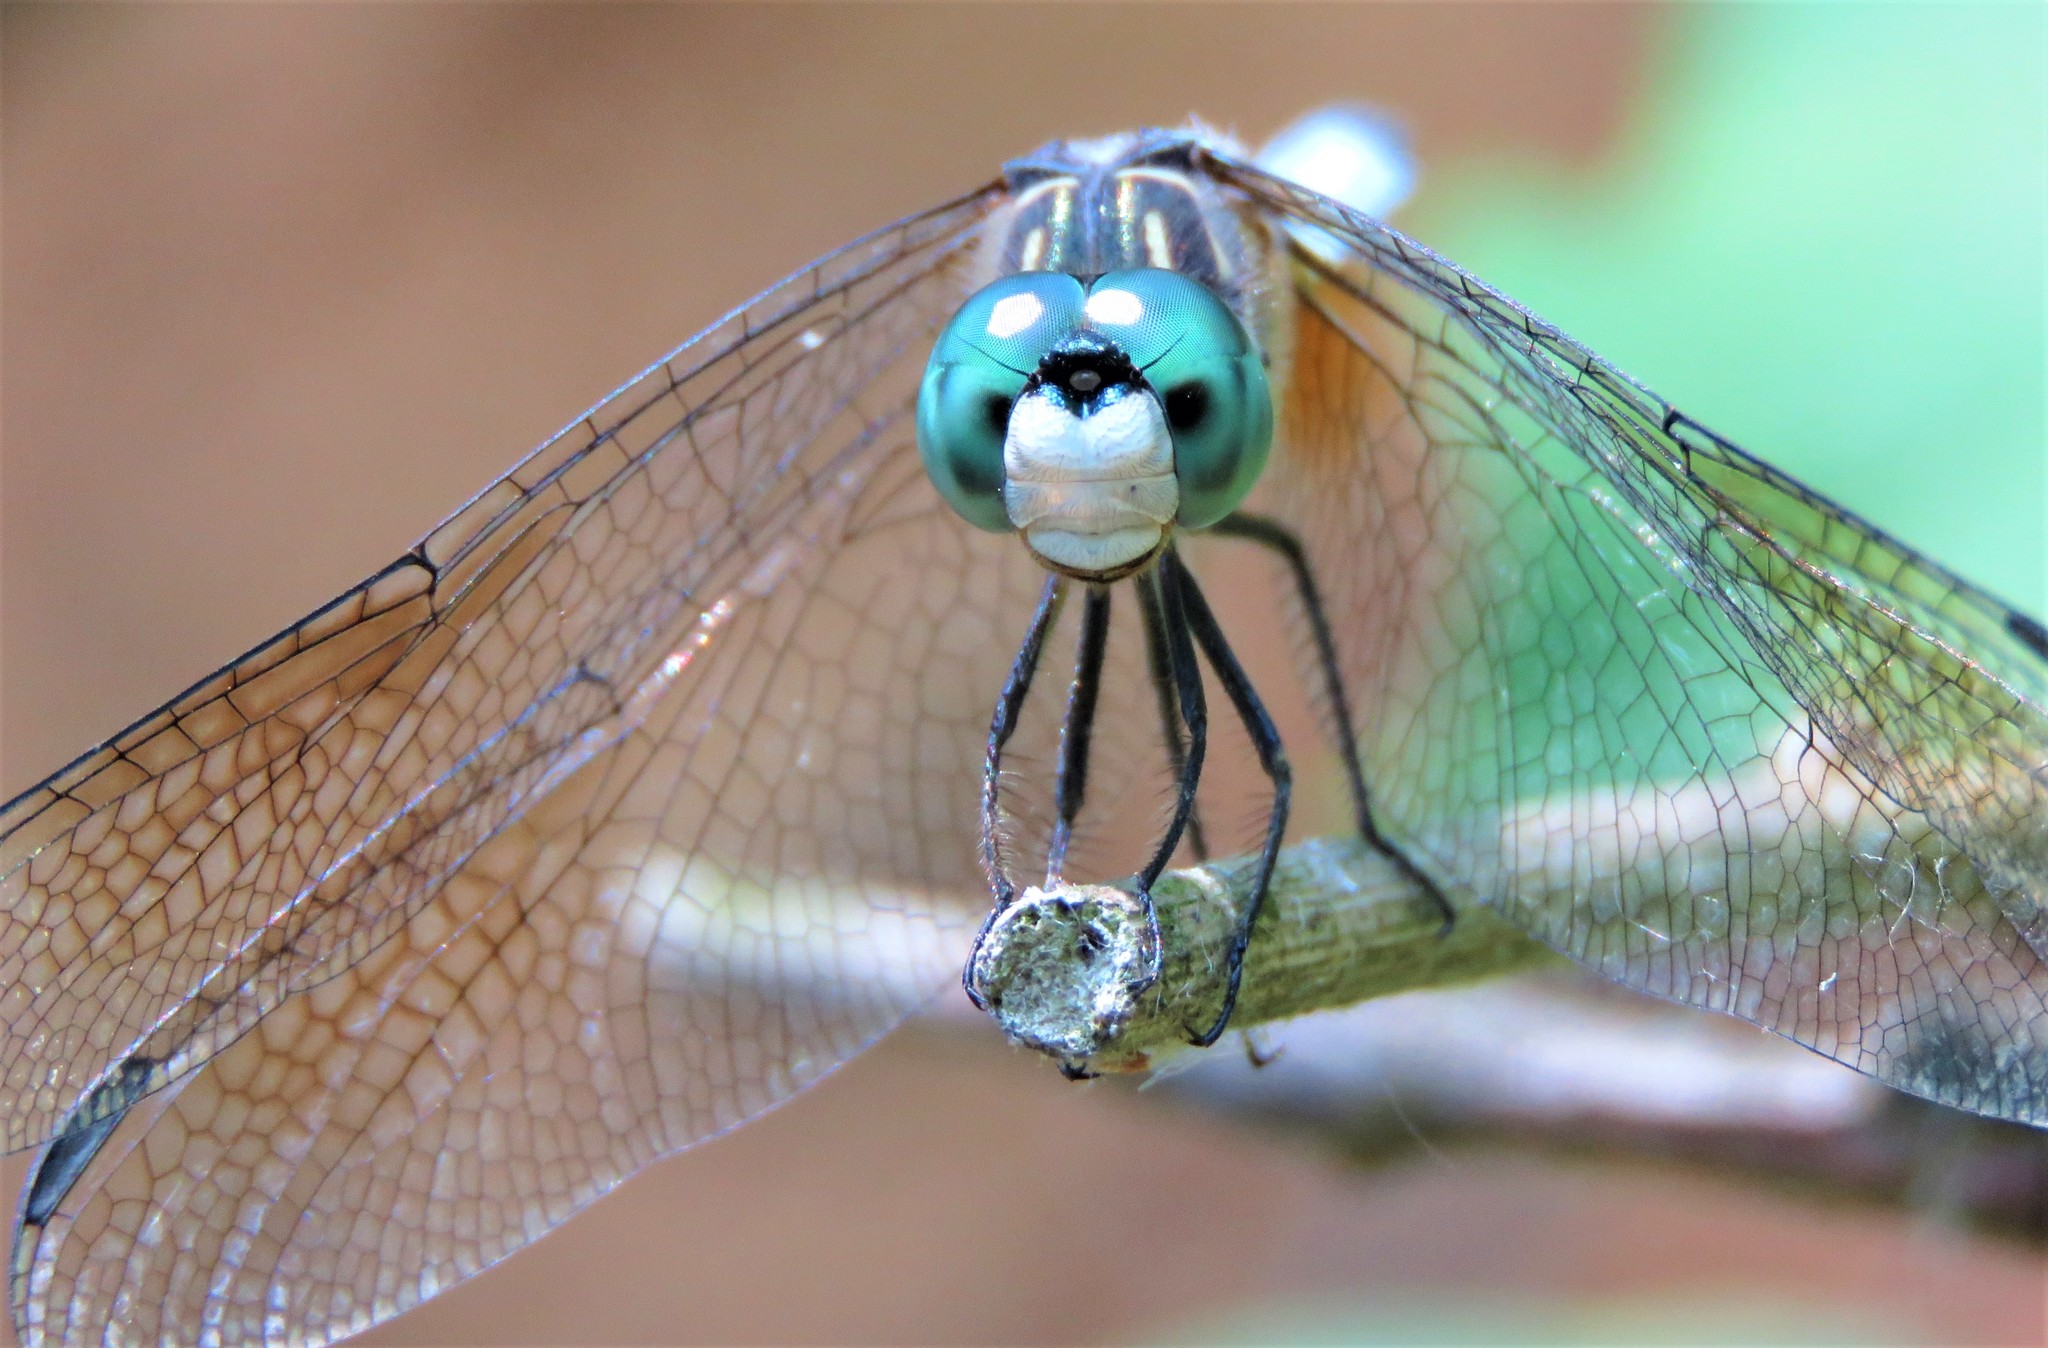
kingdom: Animalia
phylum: Arthropoda
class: Insecta
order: Odonata
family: Libellulidae
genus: Pachydiplax
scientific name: Pachydiplax longipennis
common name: Blue dasher
